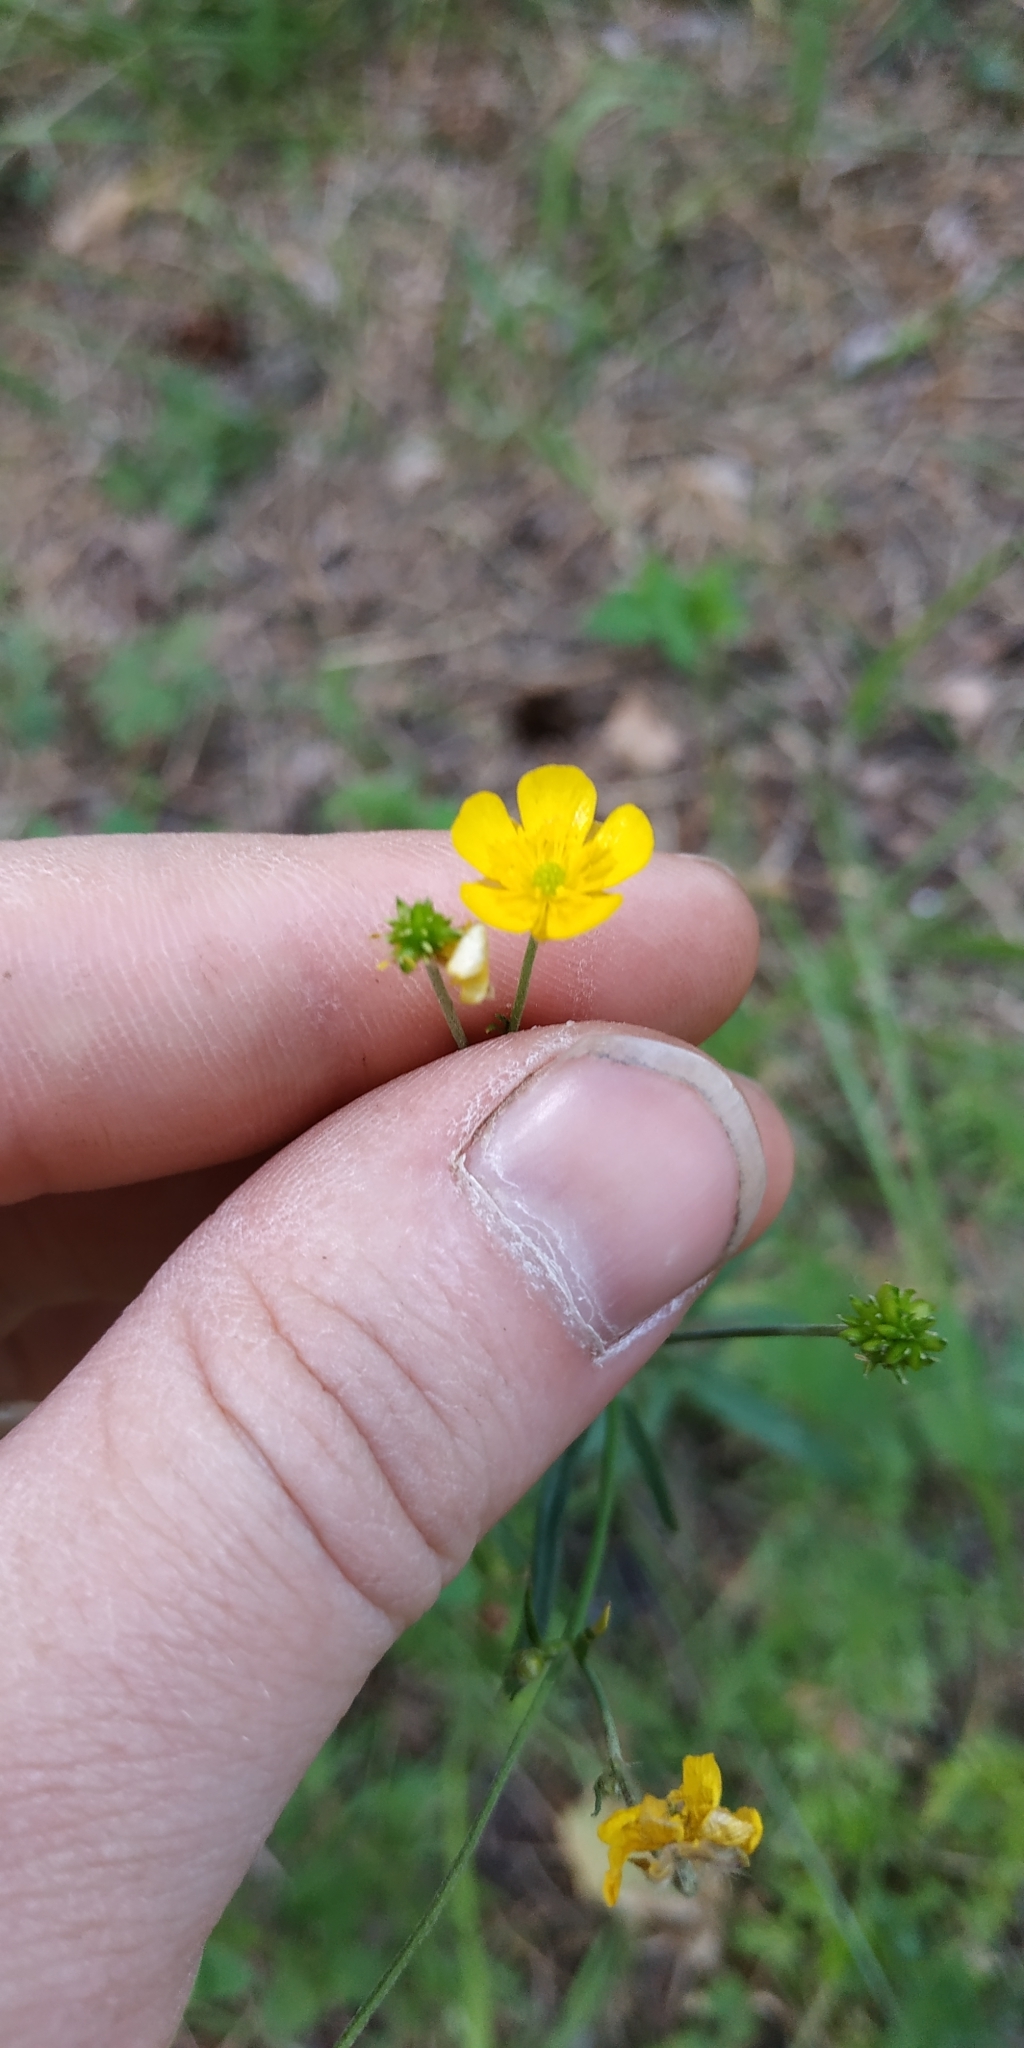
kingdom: Plantae
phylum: Tracheophyta
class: Magnoliopsida
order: Ranunculales
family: Ranunculaceae
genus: Ranunculus
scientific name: Ranunculus acris
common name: Meadow buttercup
